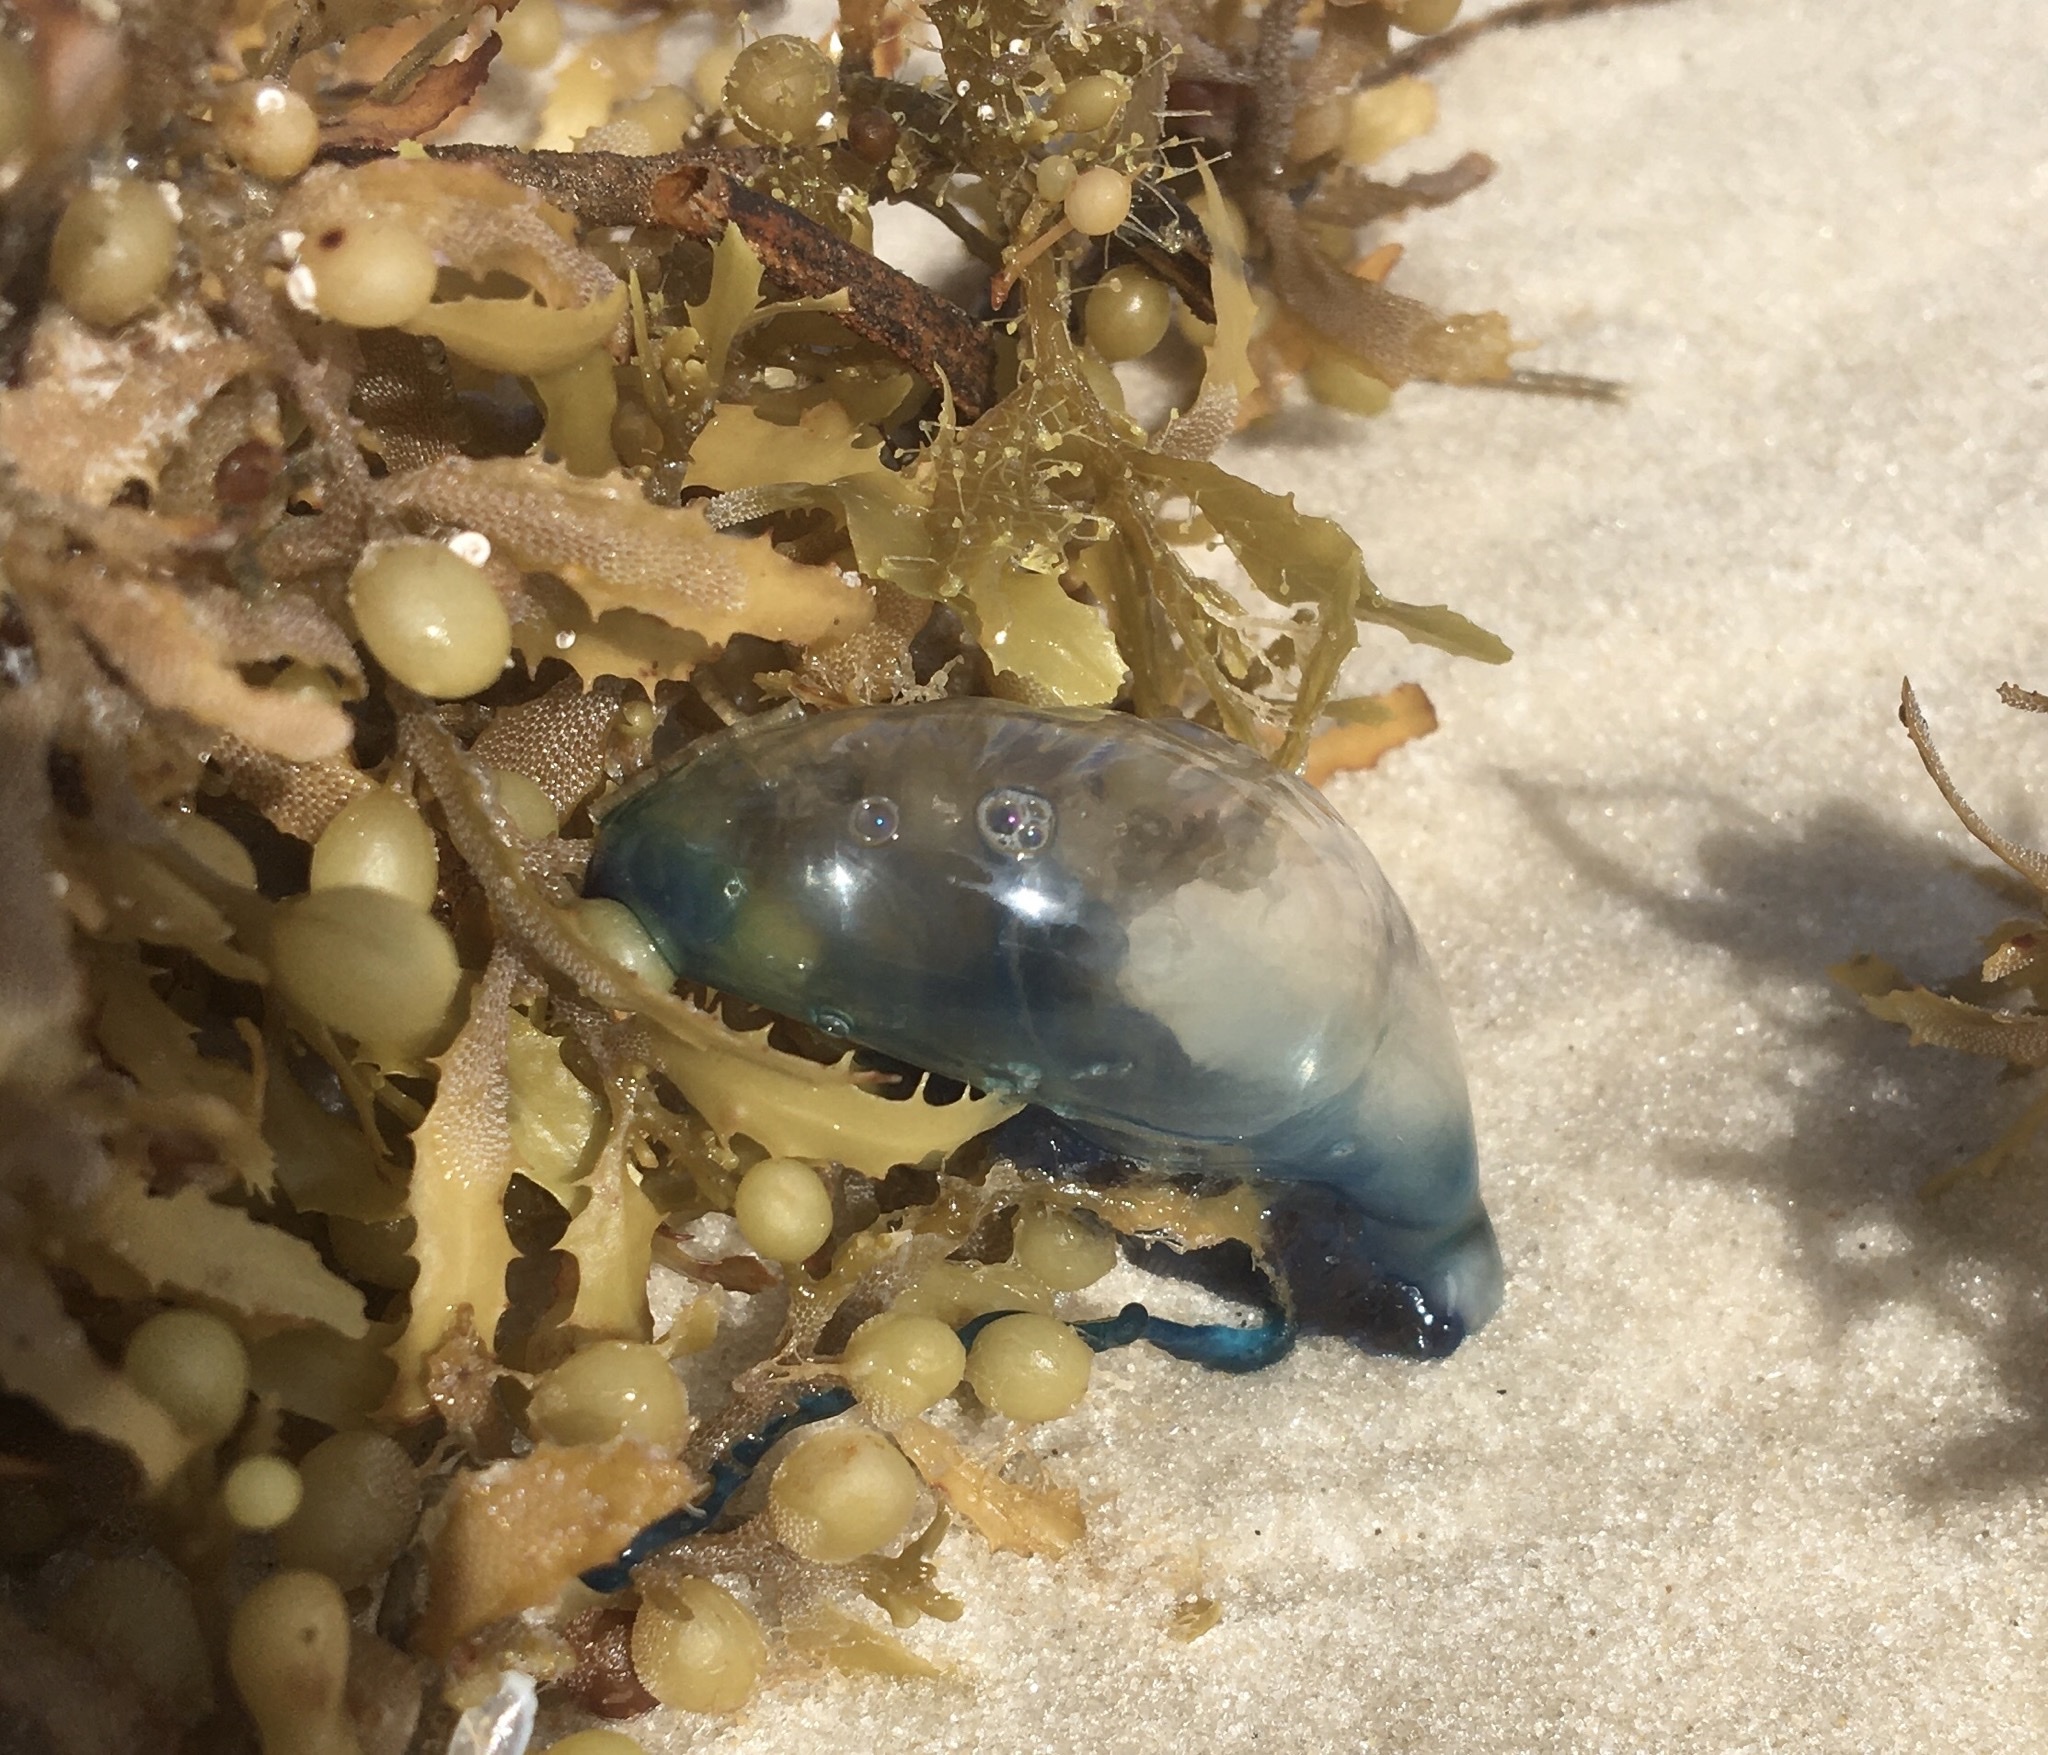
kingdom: Animalia
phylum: Cnidaria
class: Hydrozoa
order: Siphonophorae
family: Physaliidae
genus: Physalia
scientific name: Physalia physalis
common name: Portuguese man-of-war
